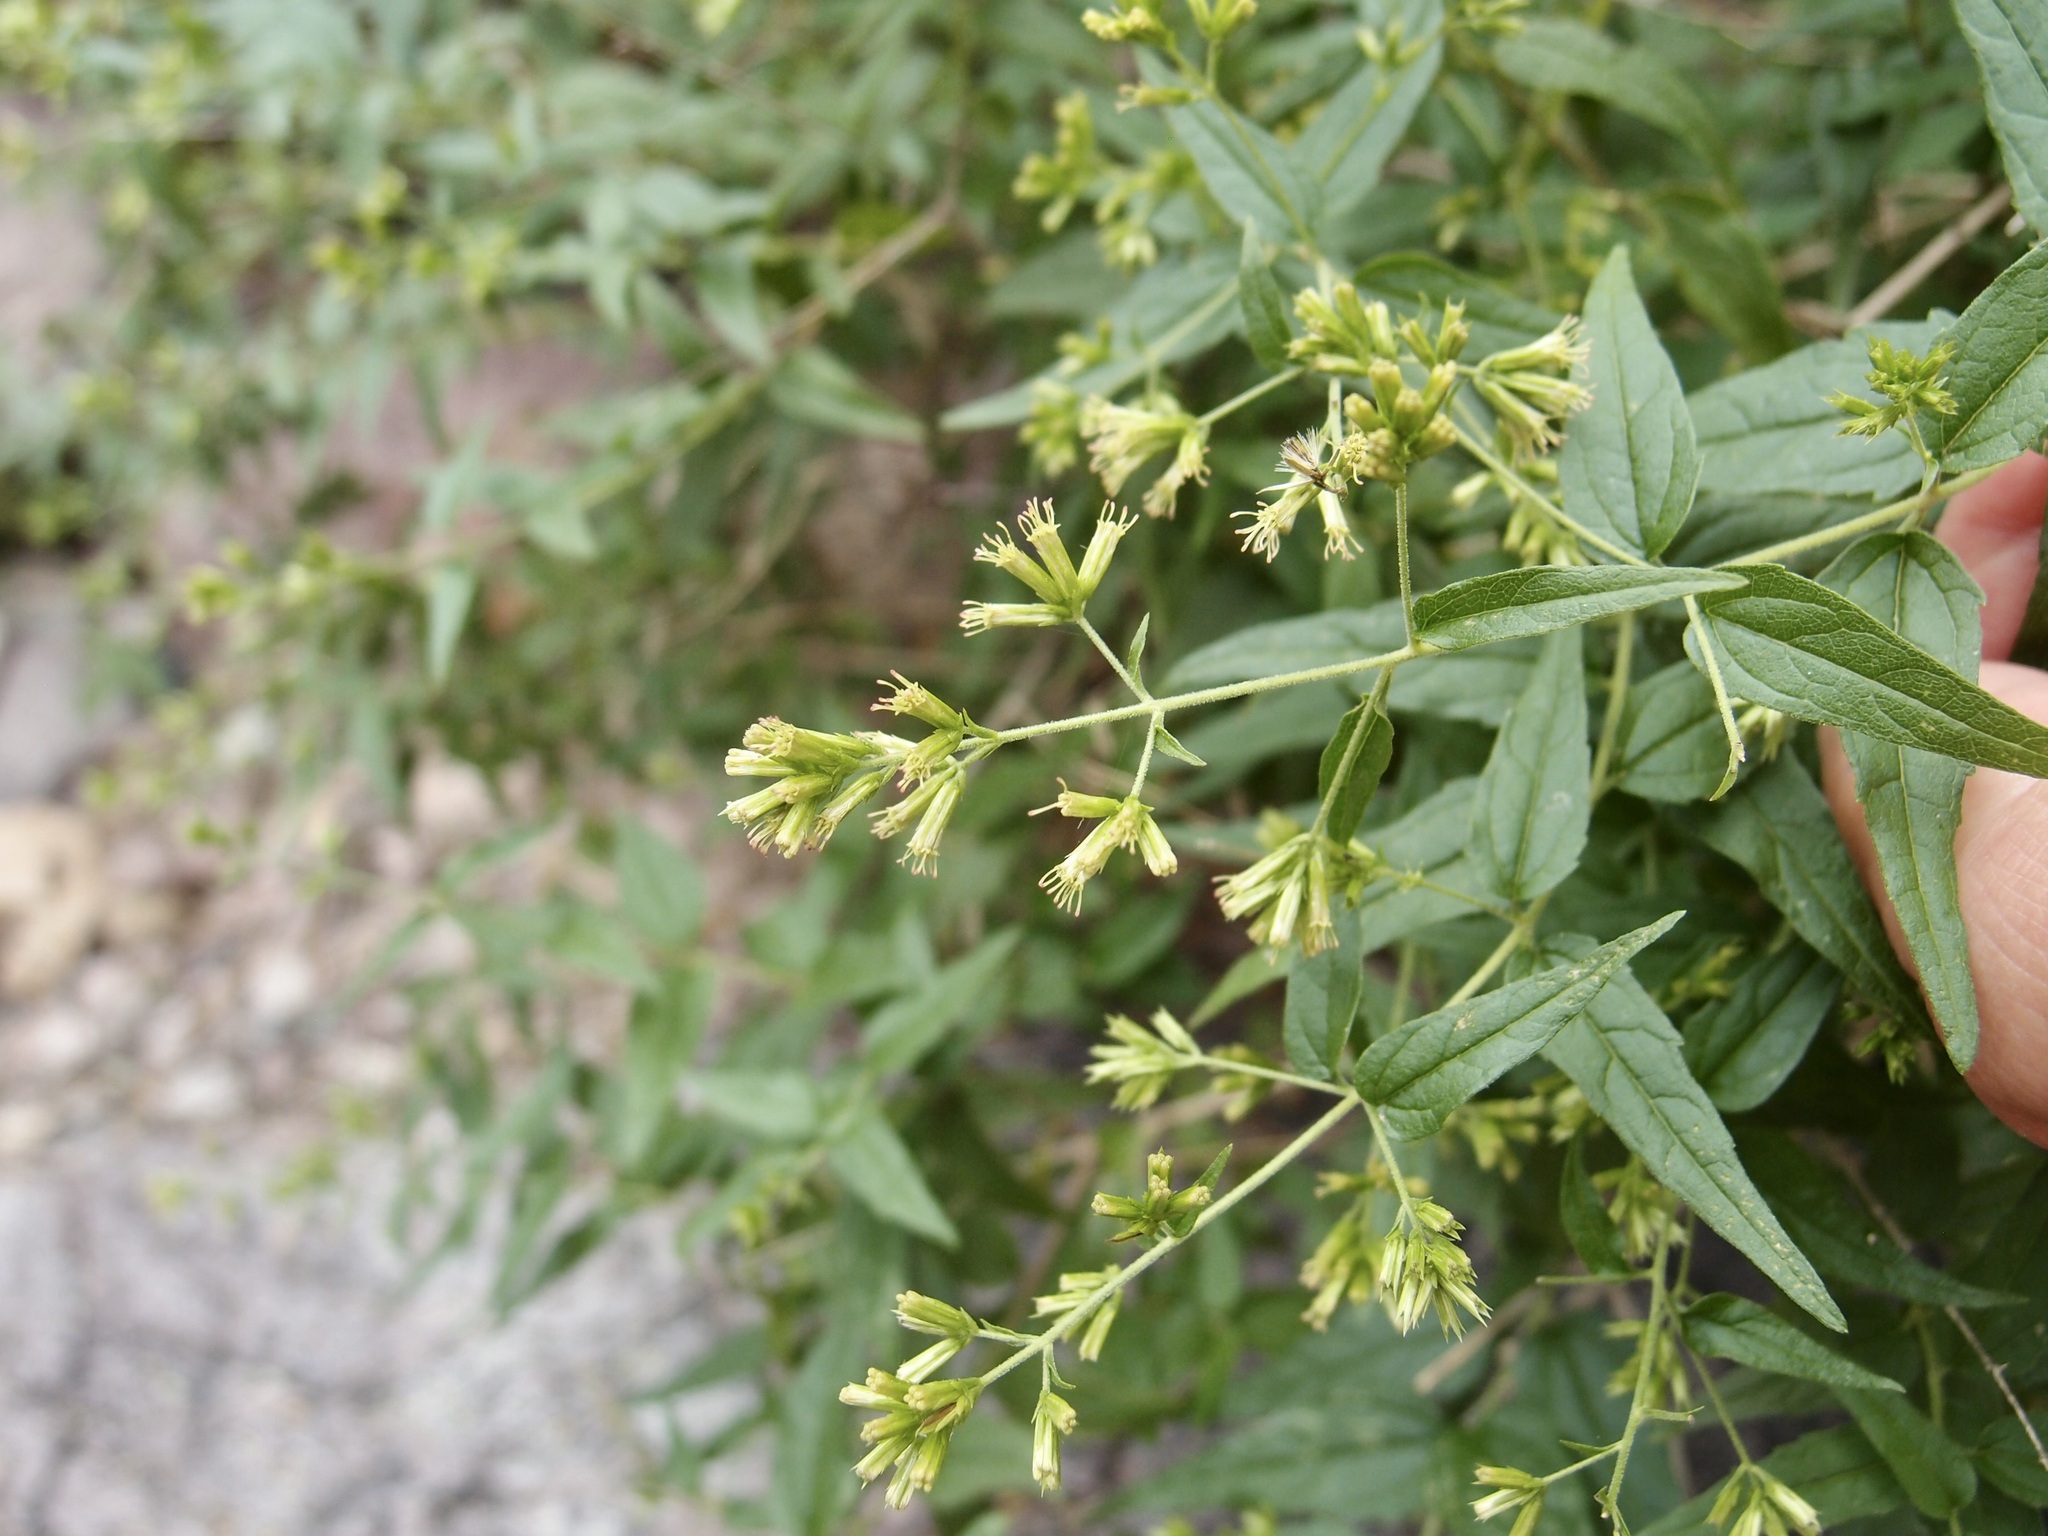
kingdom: Plantae
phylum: Tracheophyta
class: Magnoliopsida
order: Asterales
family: Asteraceae
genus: Koanophyllon
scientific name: Koanophyllon palmeri
